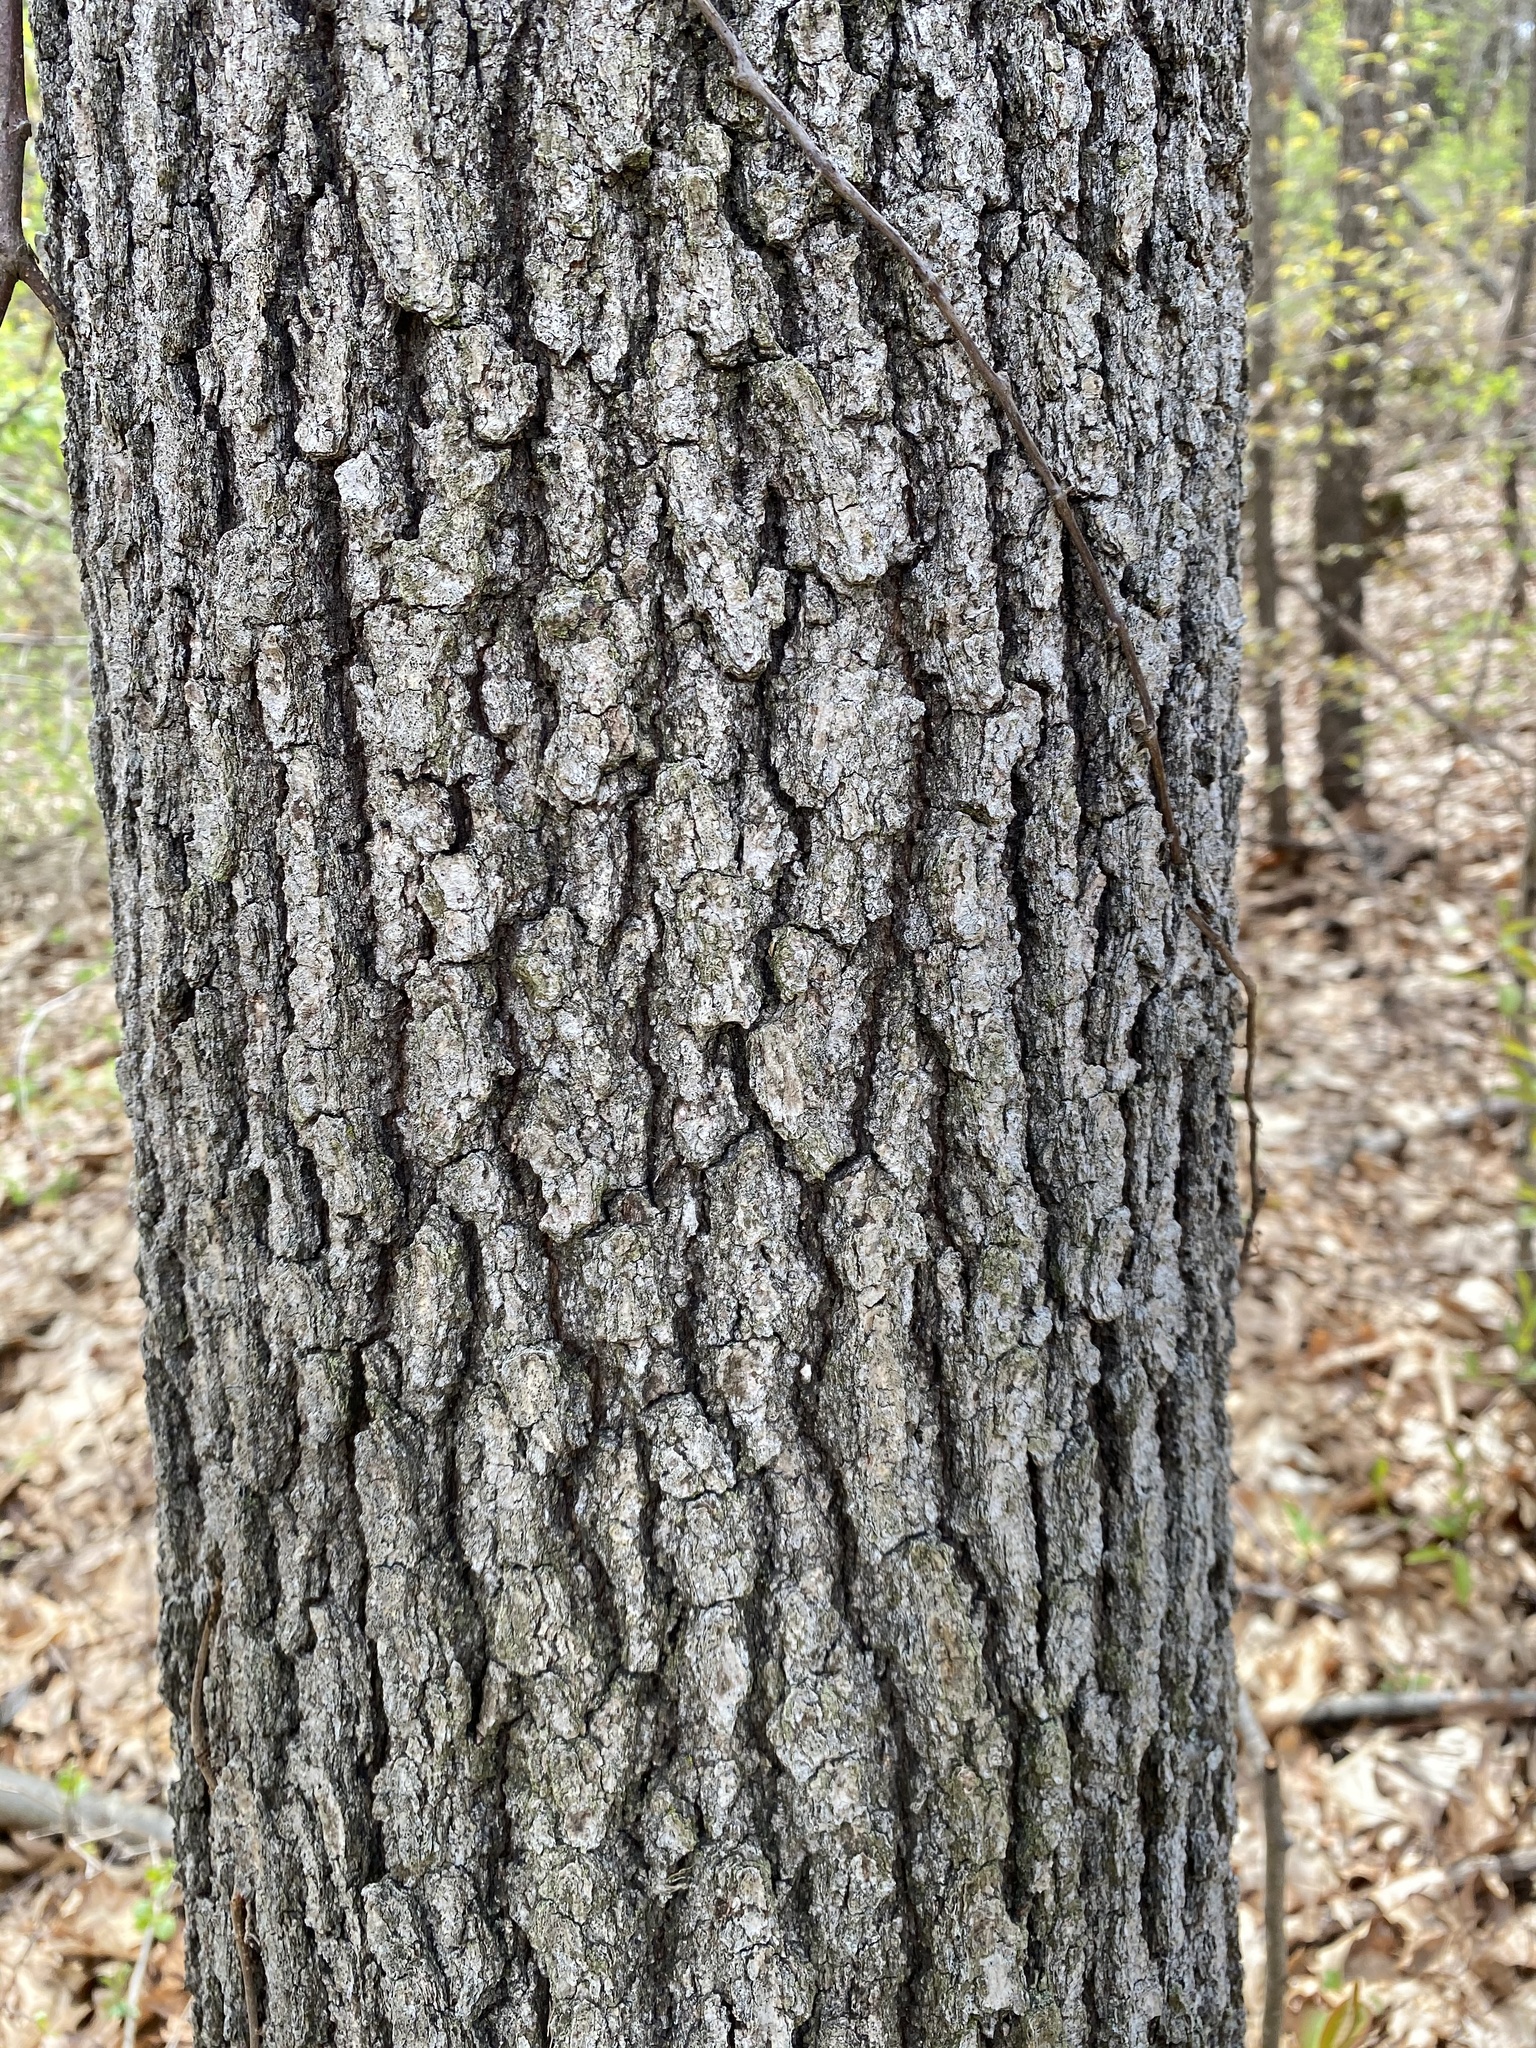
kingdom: Plantae
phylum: Tracheophyta
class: Magnoliopsida
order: Fagales
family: Fagaceae
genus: Quercus
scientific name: Quercus velutina
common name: Black oak
